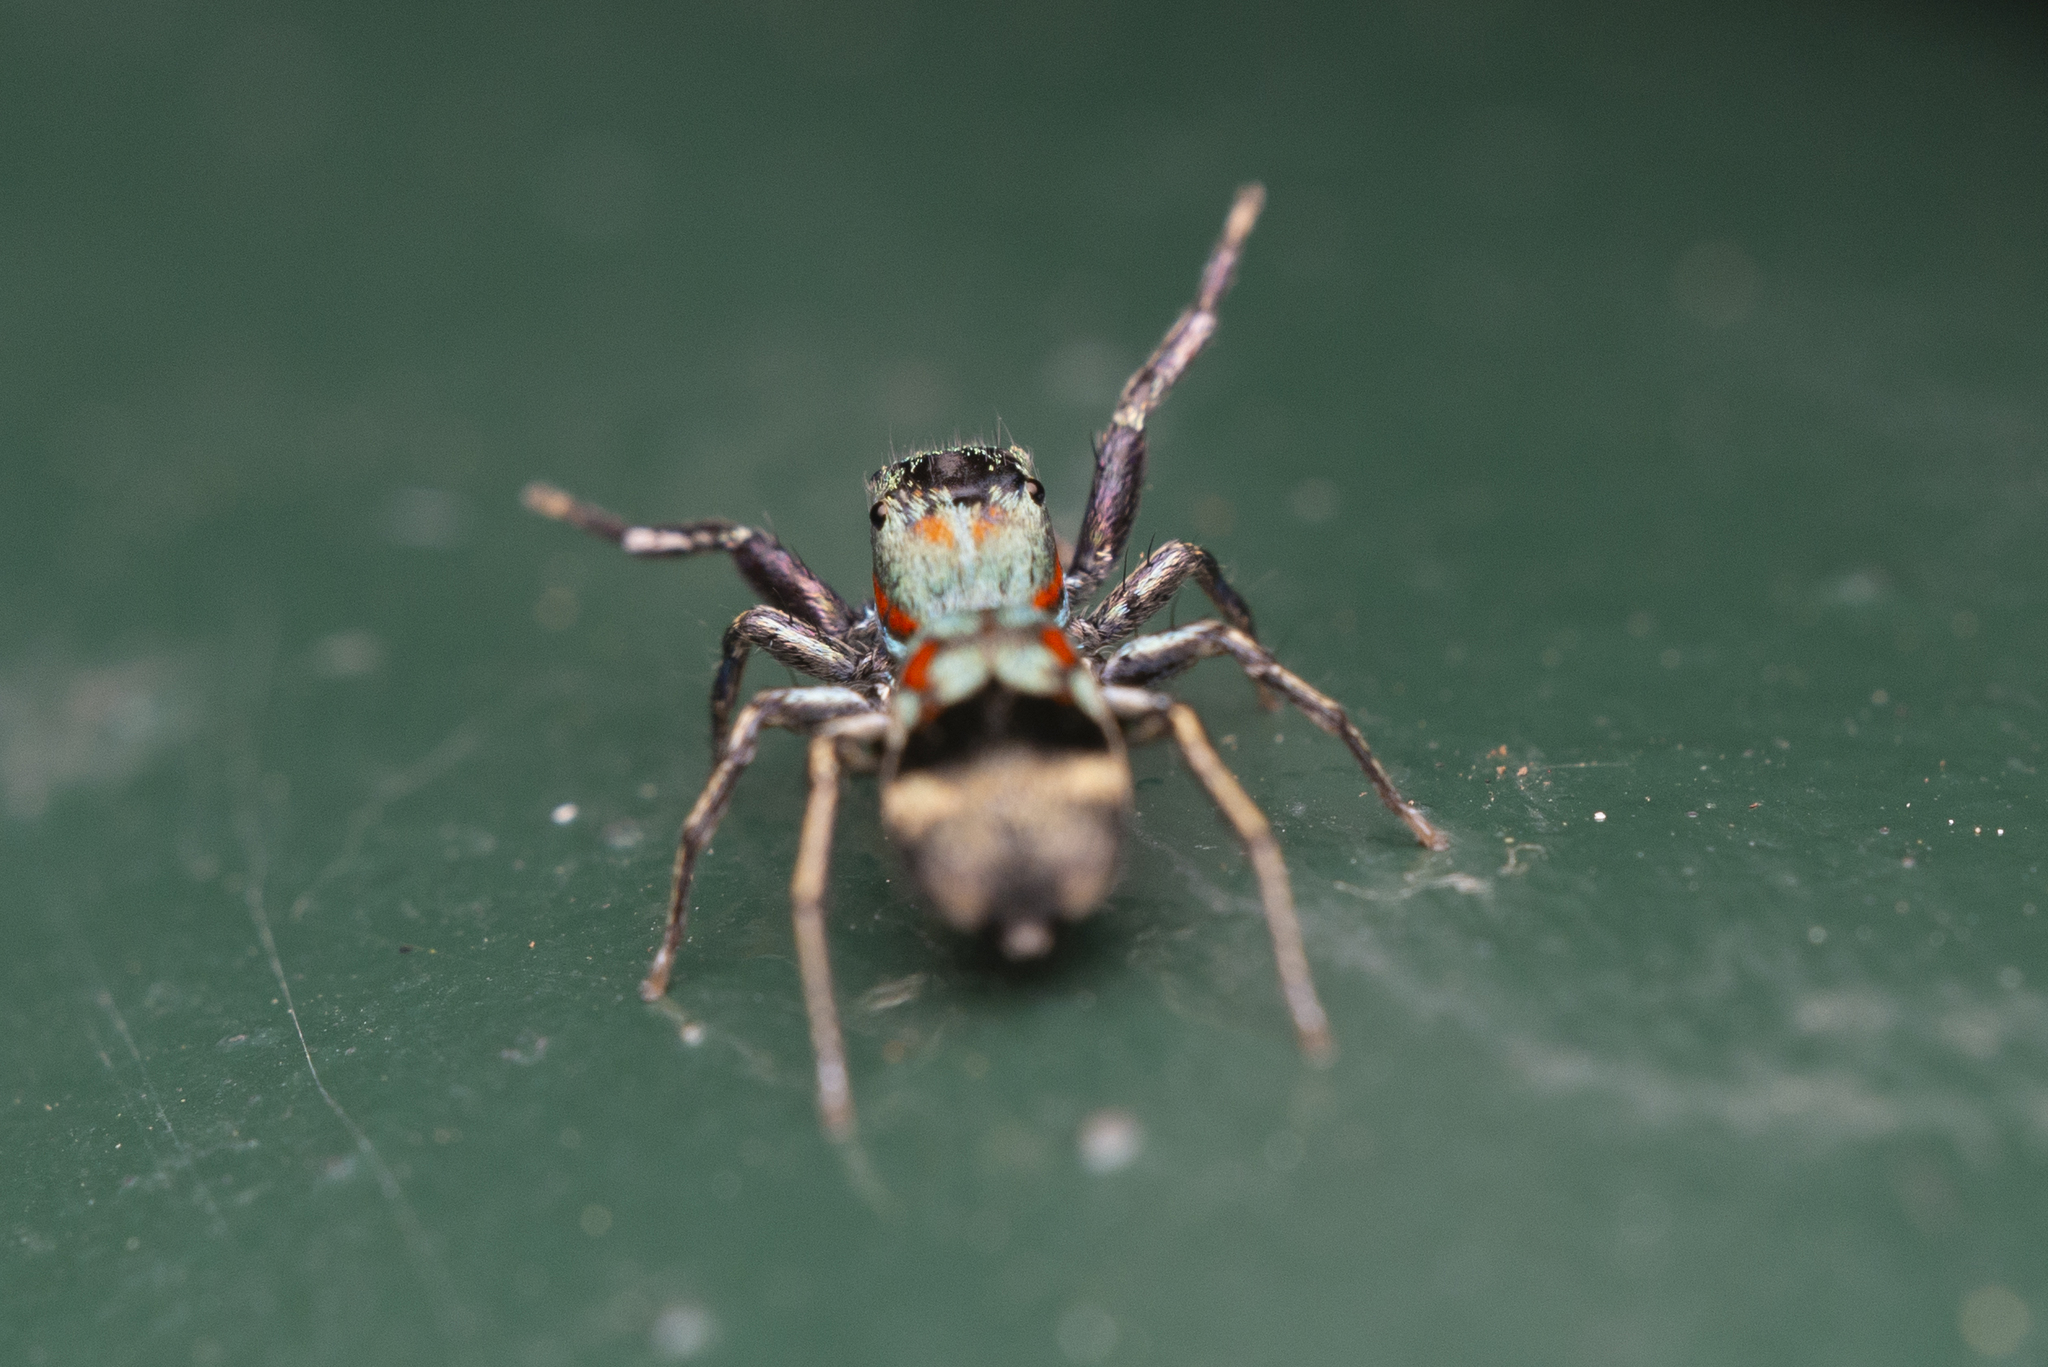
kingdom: Animalia
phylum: Arthropoda
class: Arachnida
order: Araneae
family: Salticidae
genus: Siler
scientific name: Siler collingwoodi
